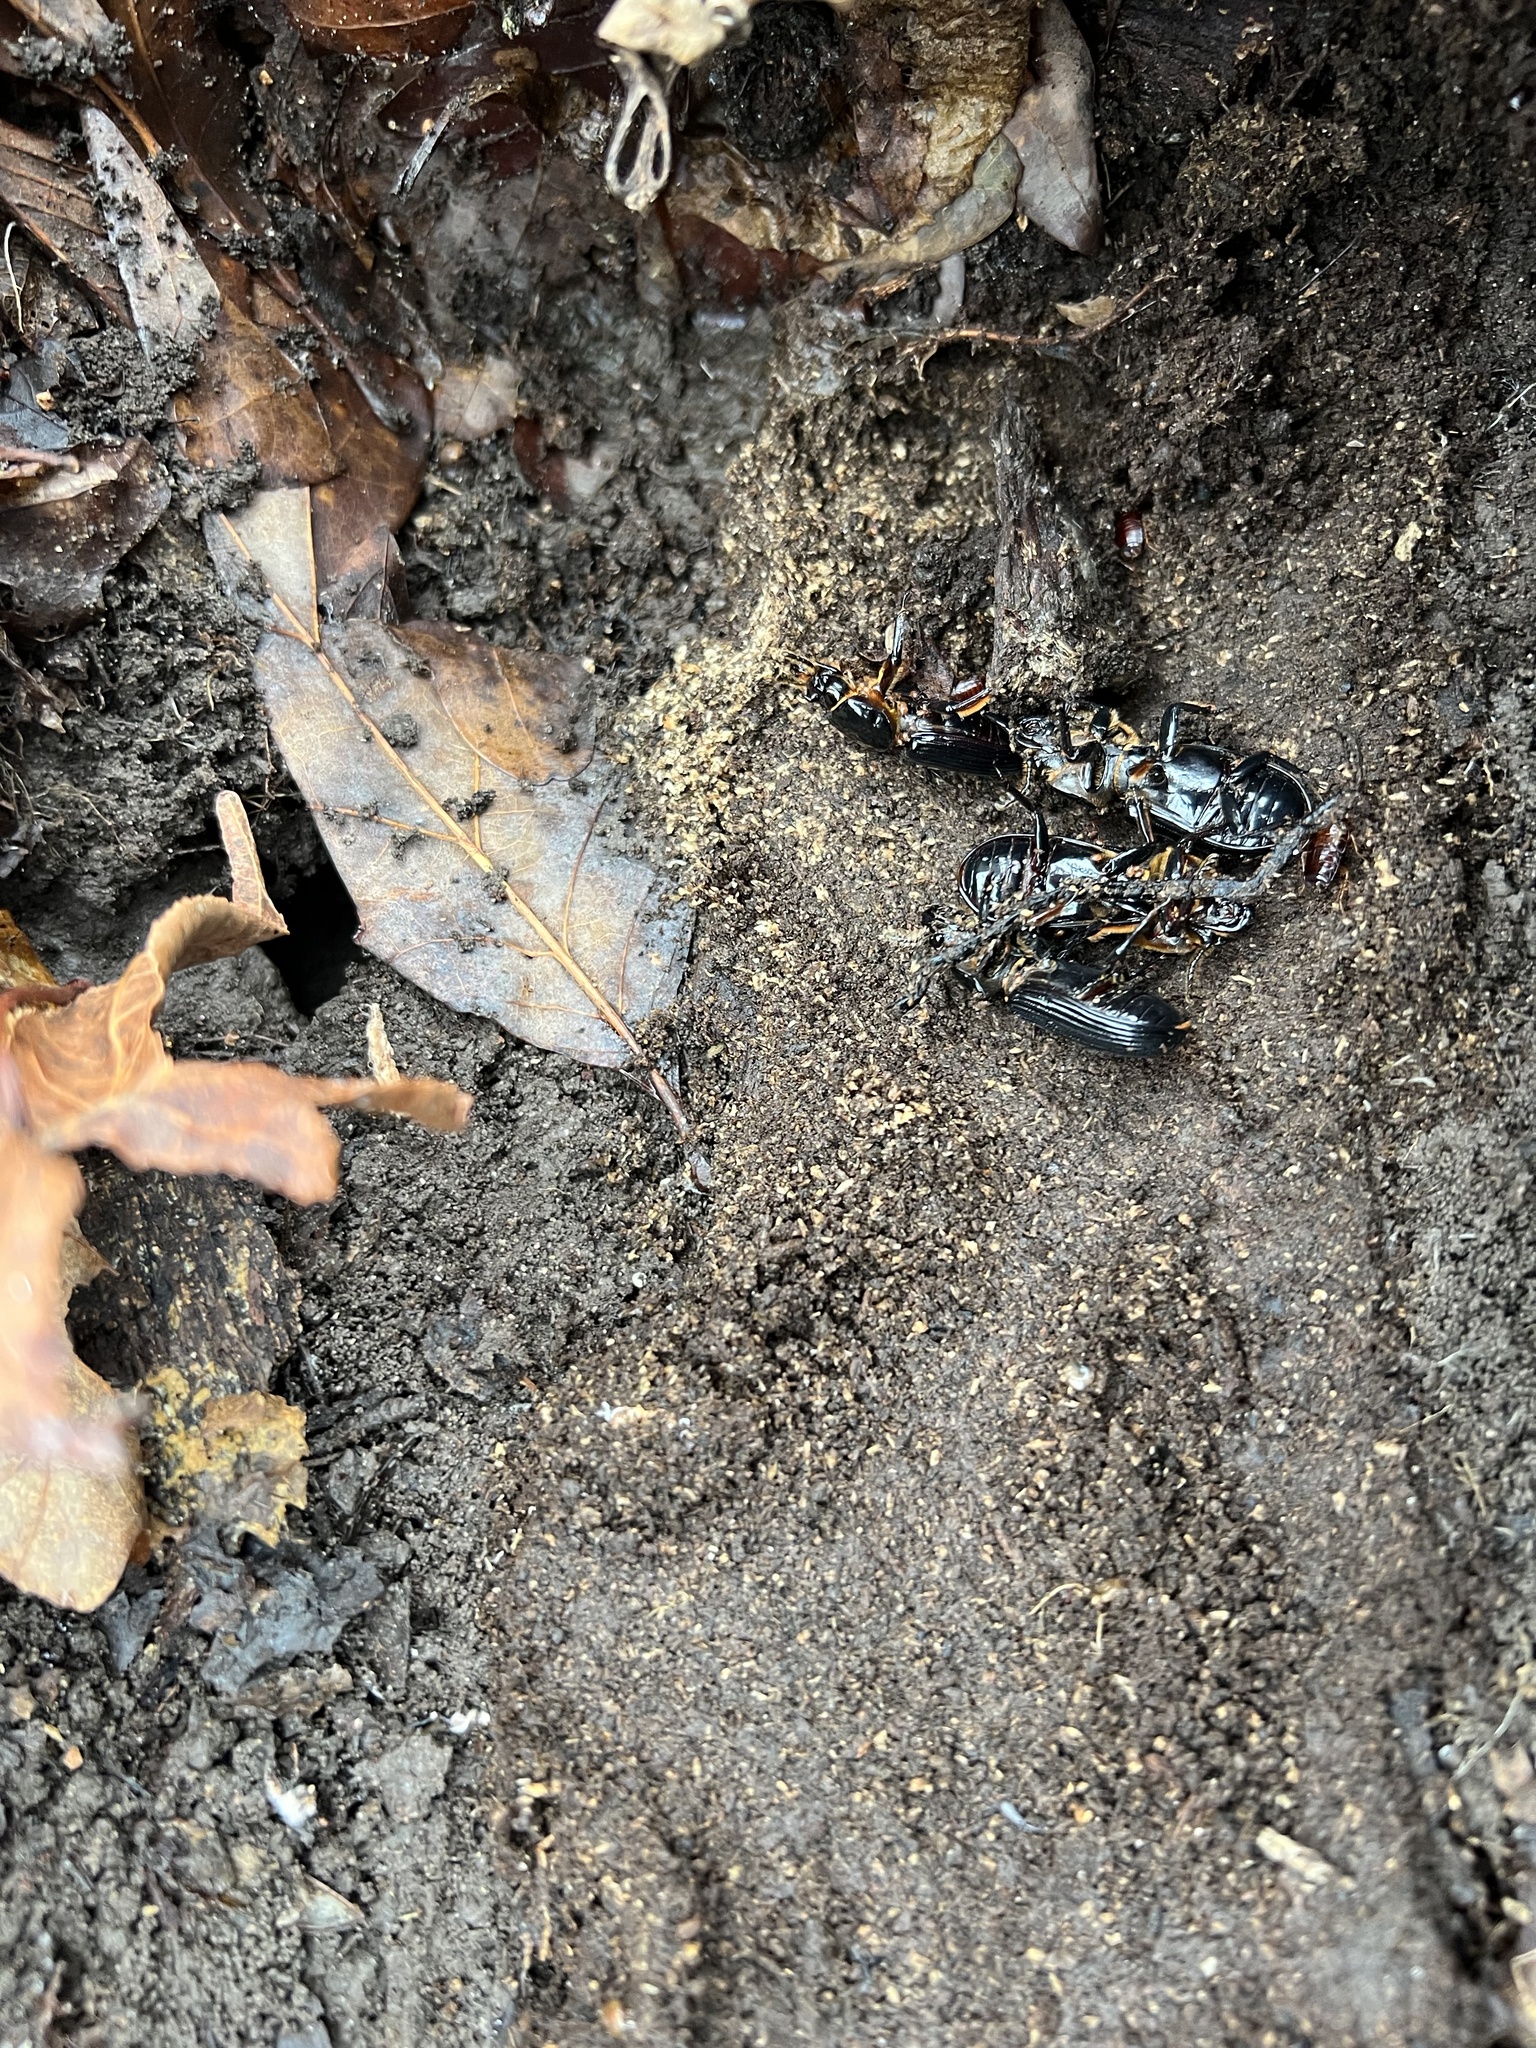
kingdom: Animalia
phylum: Arthropoda
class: Insecta
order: Coleoptera
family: Passalidae
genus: Odontotaenius
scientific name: Odontotaenius disjunctus
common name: Patent leather beetle
